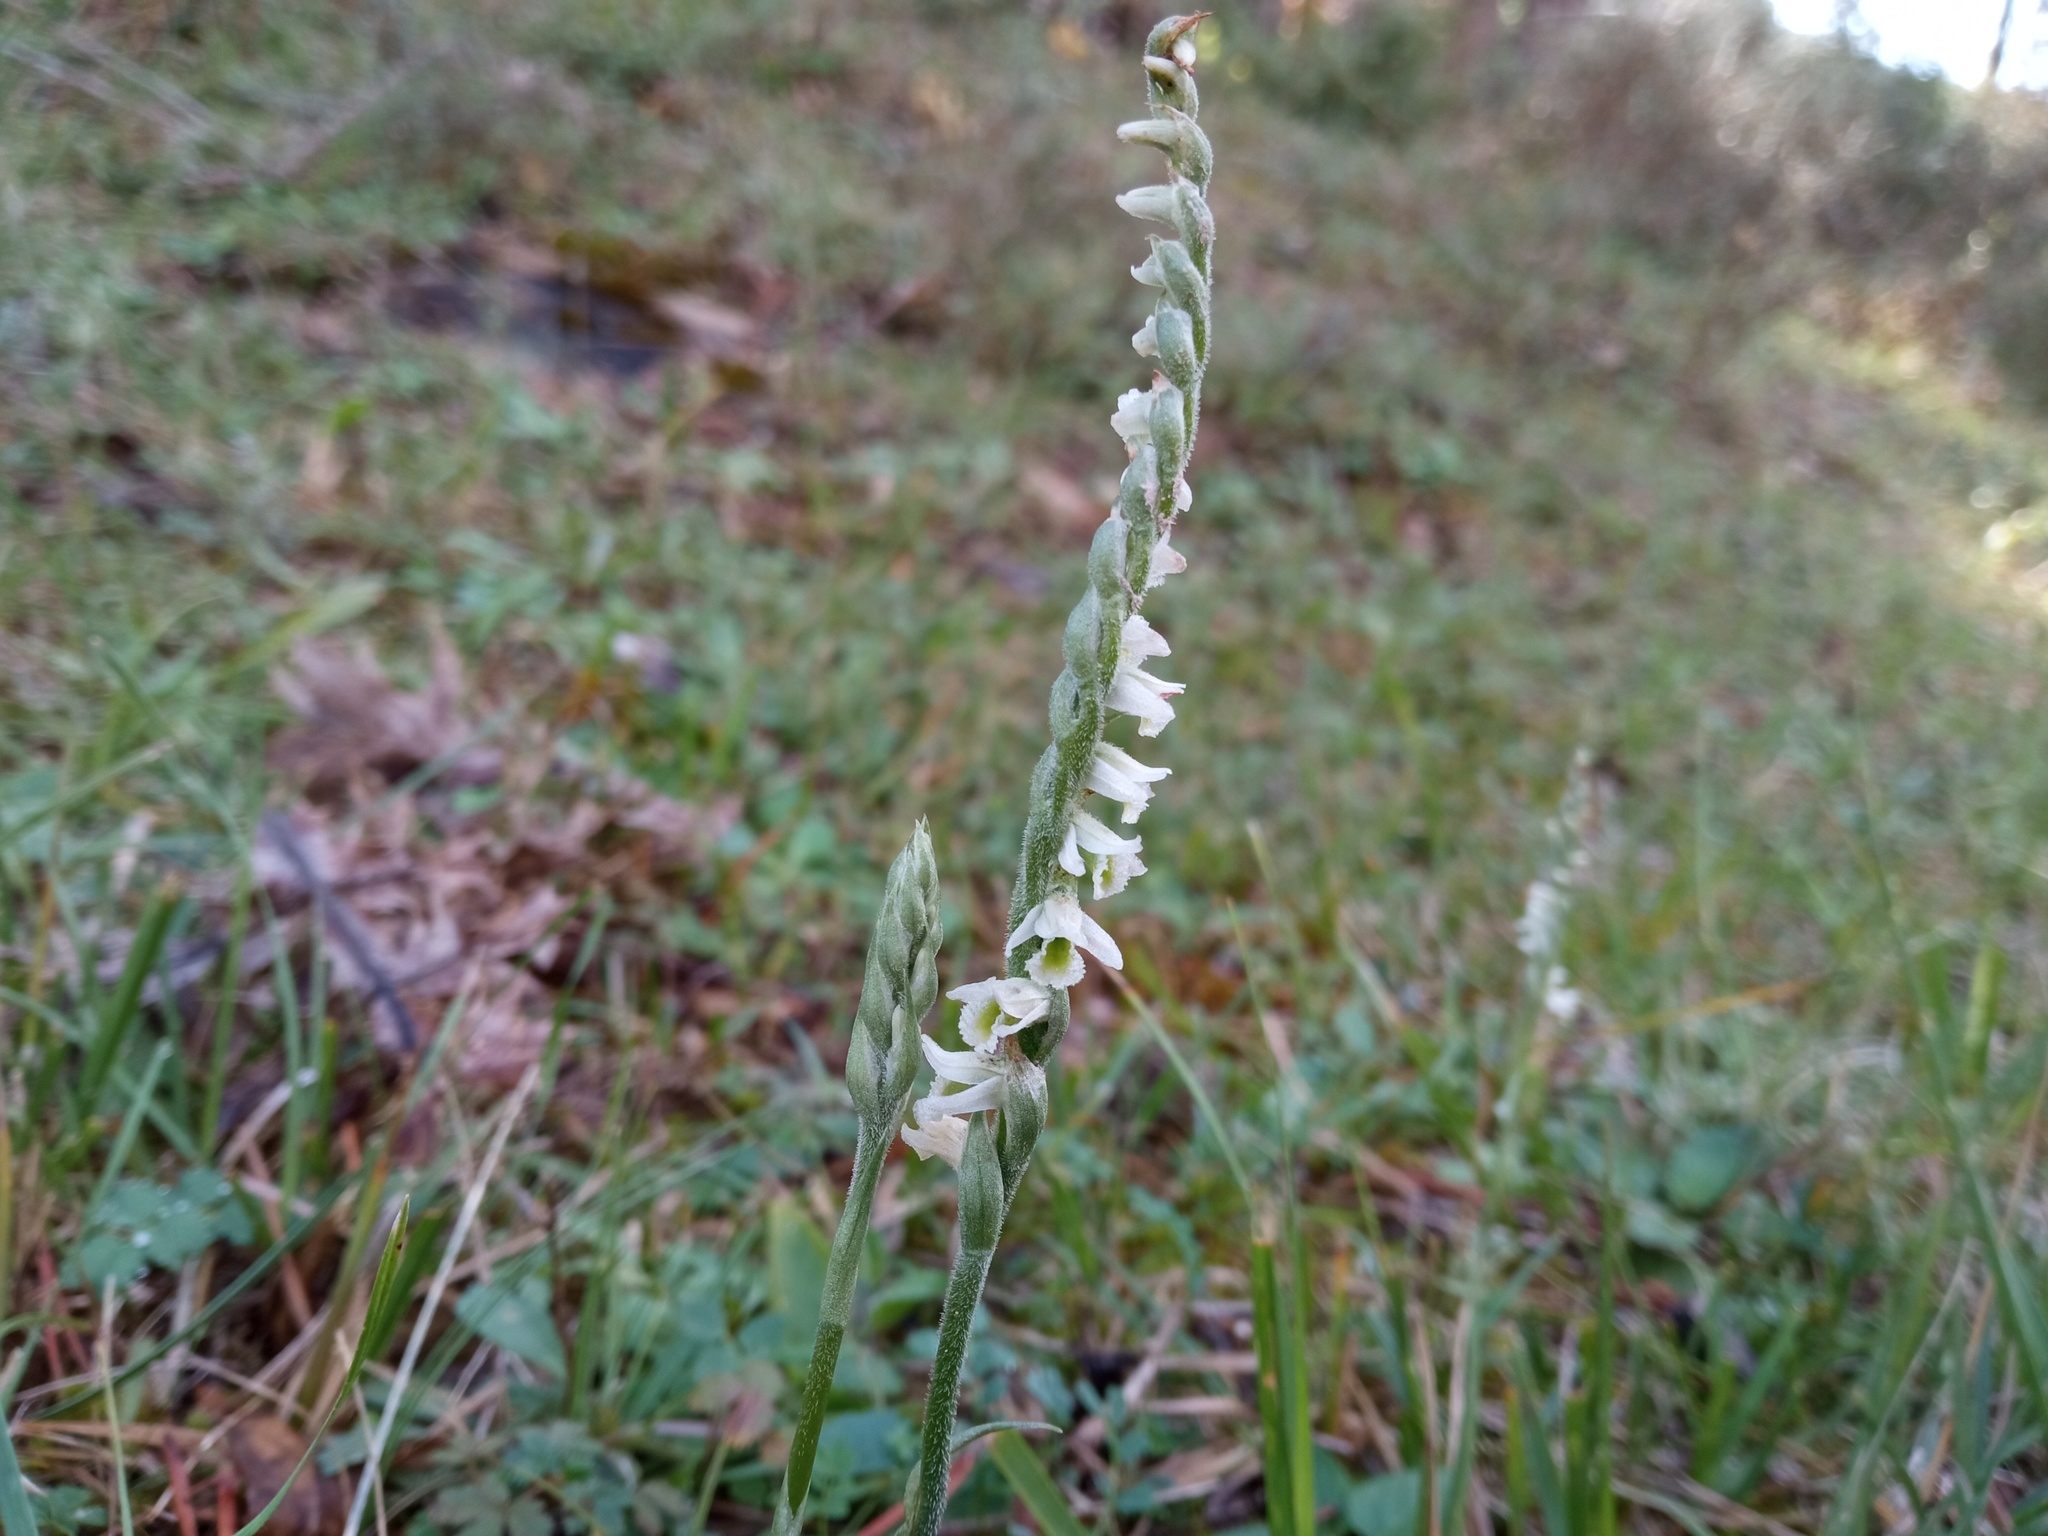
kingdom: Plantae
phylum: Tracheophyta
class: Liliopsida
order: Asparagales
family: Orchidaceae
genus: Spiranthes
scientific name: Spiranthes spiralis
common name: Autumn lady's-tresses
